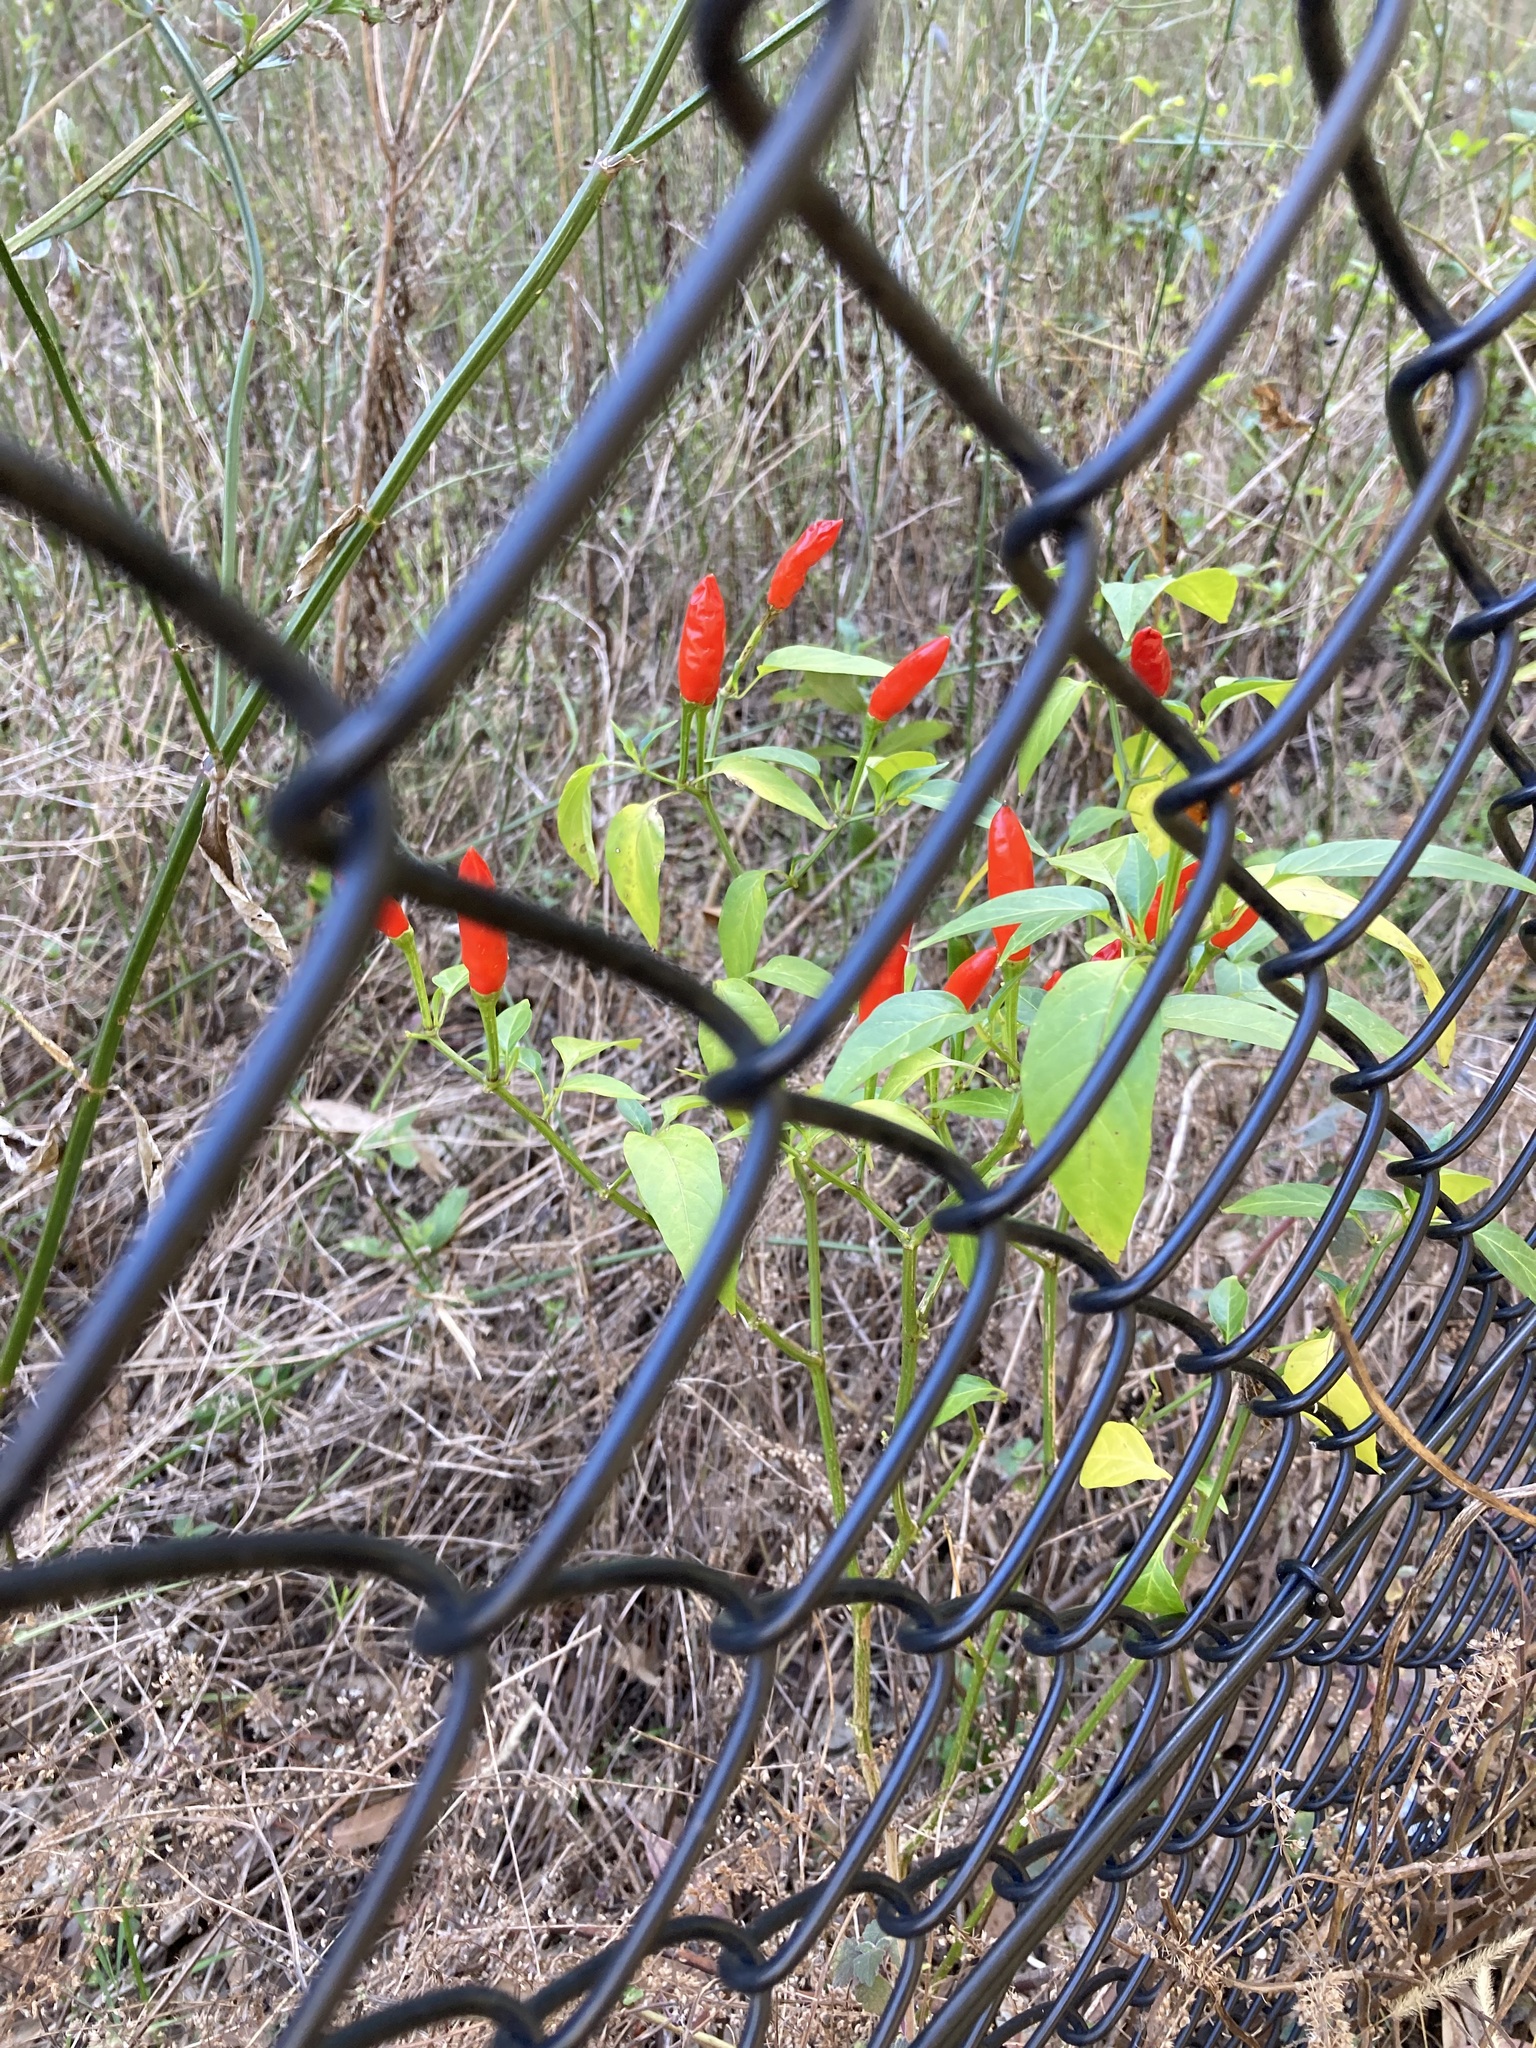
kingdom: Plantae
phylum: Tracheophyta
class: Magnoliopsida
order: Solanales
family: Solanaceae
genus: Capsicum
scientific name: Capsicum annuum
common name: Sweet pepper
